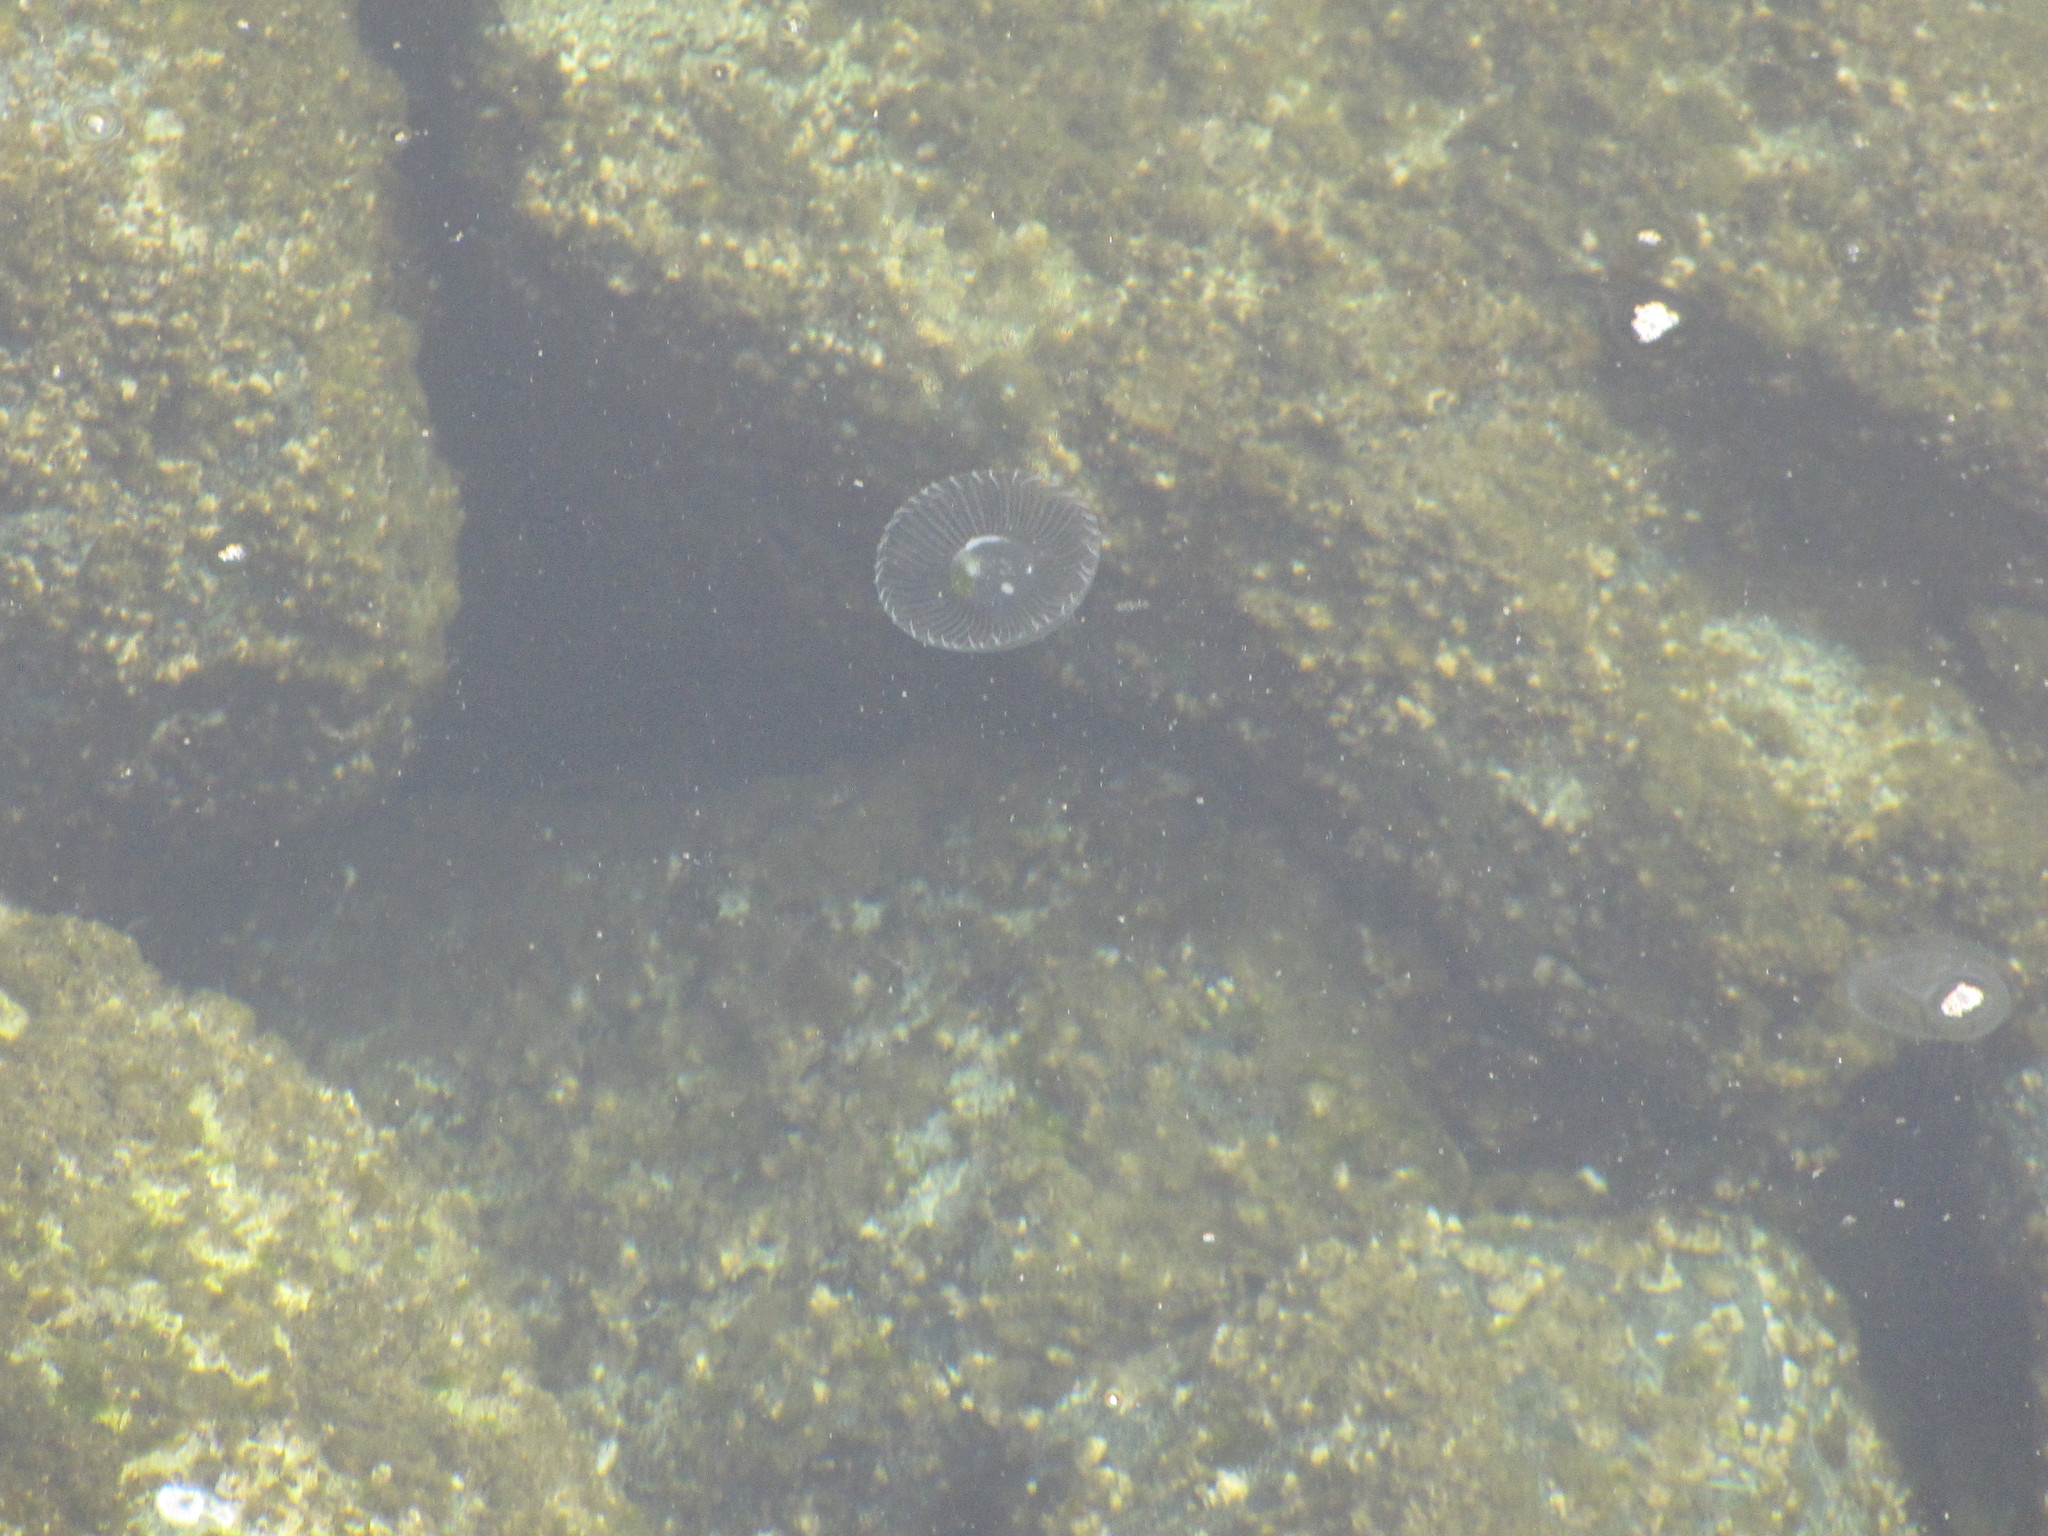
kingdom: Animalia
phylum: Cnidaria
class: Hydrozoa
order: Leptothecata
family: Aequoreidae
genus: Aequorea
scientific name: Aequorea victoria
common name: Water jellyfish
